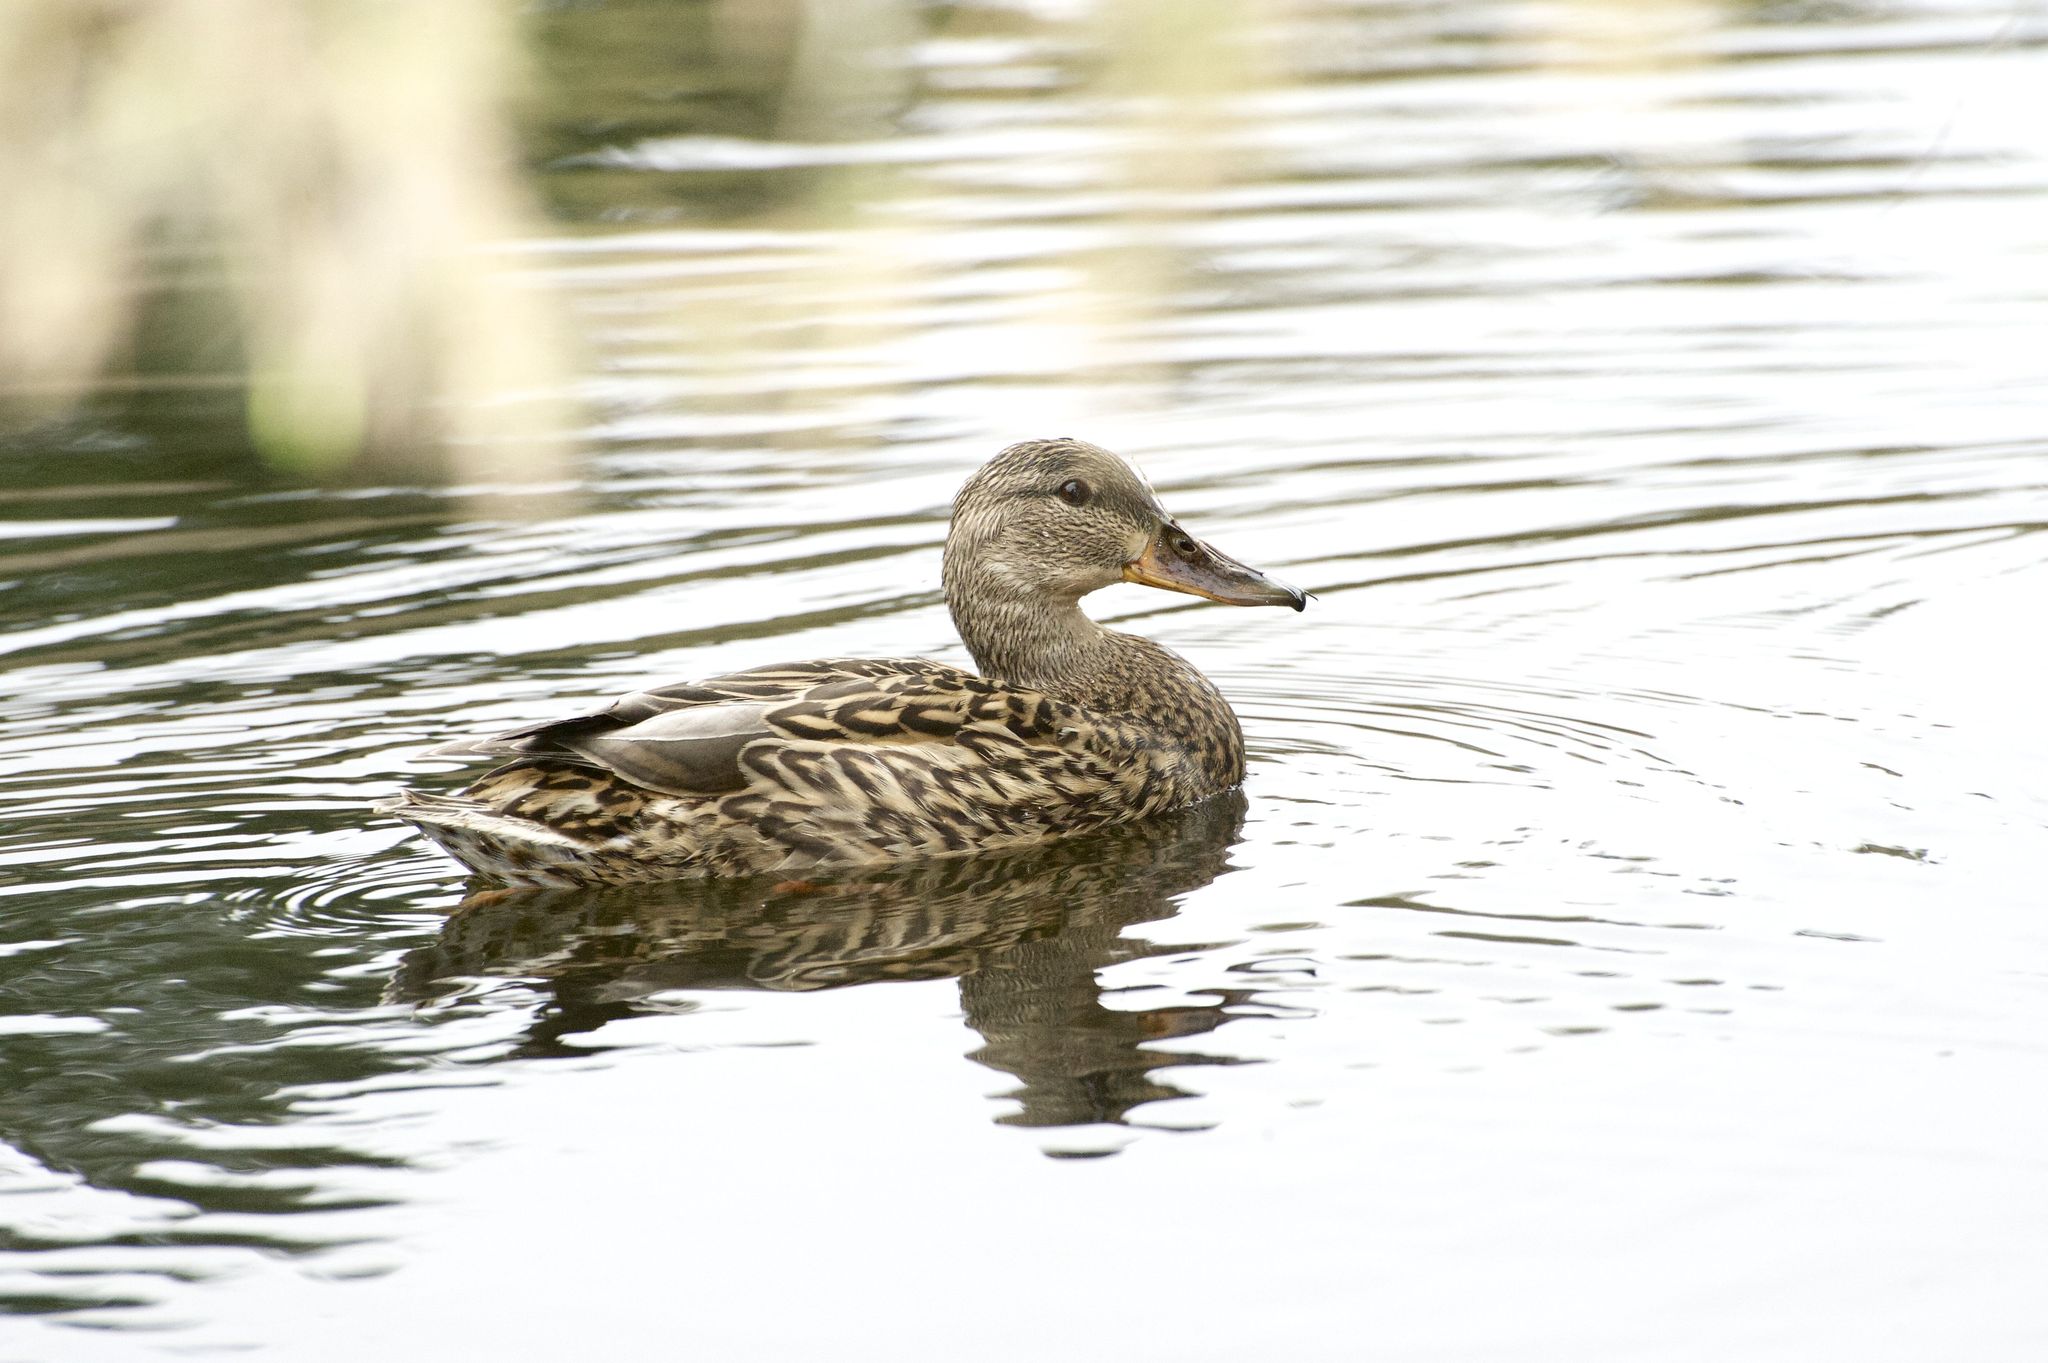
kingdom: Animalia
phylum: Chordata
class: Aves
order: Anseriformes
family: Anatidae
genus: Anas
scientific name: Anas platyrhynchos
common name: Mallard
